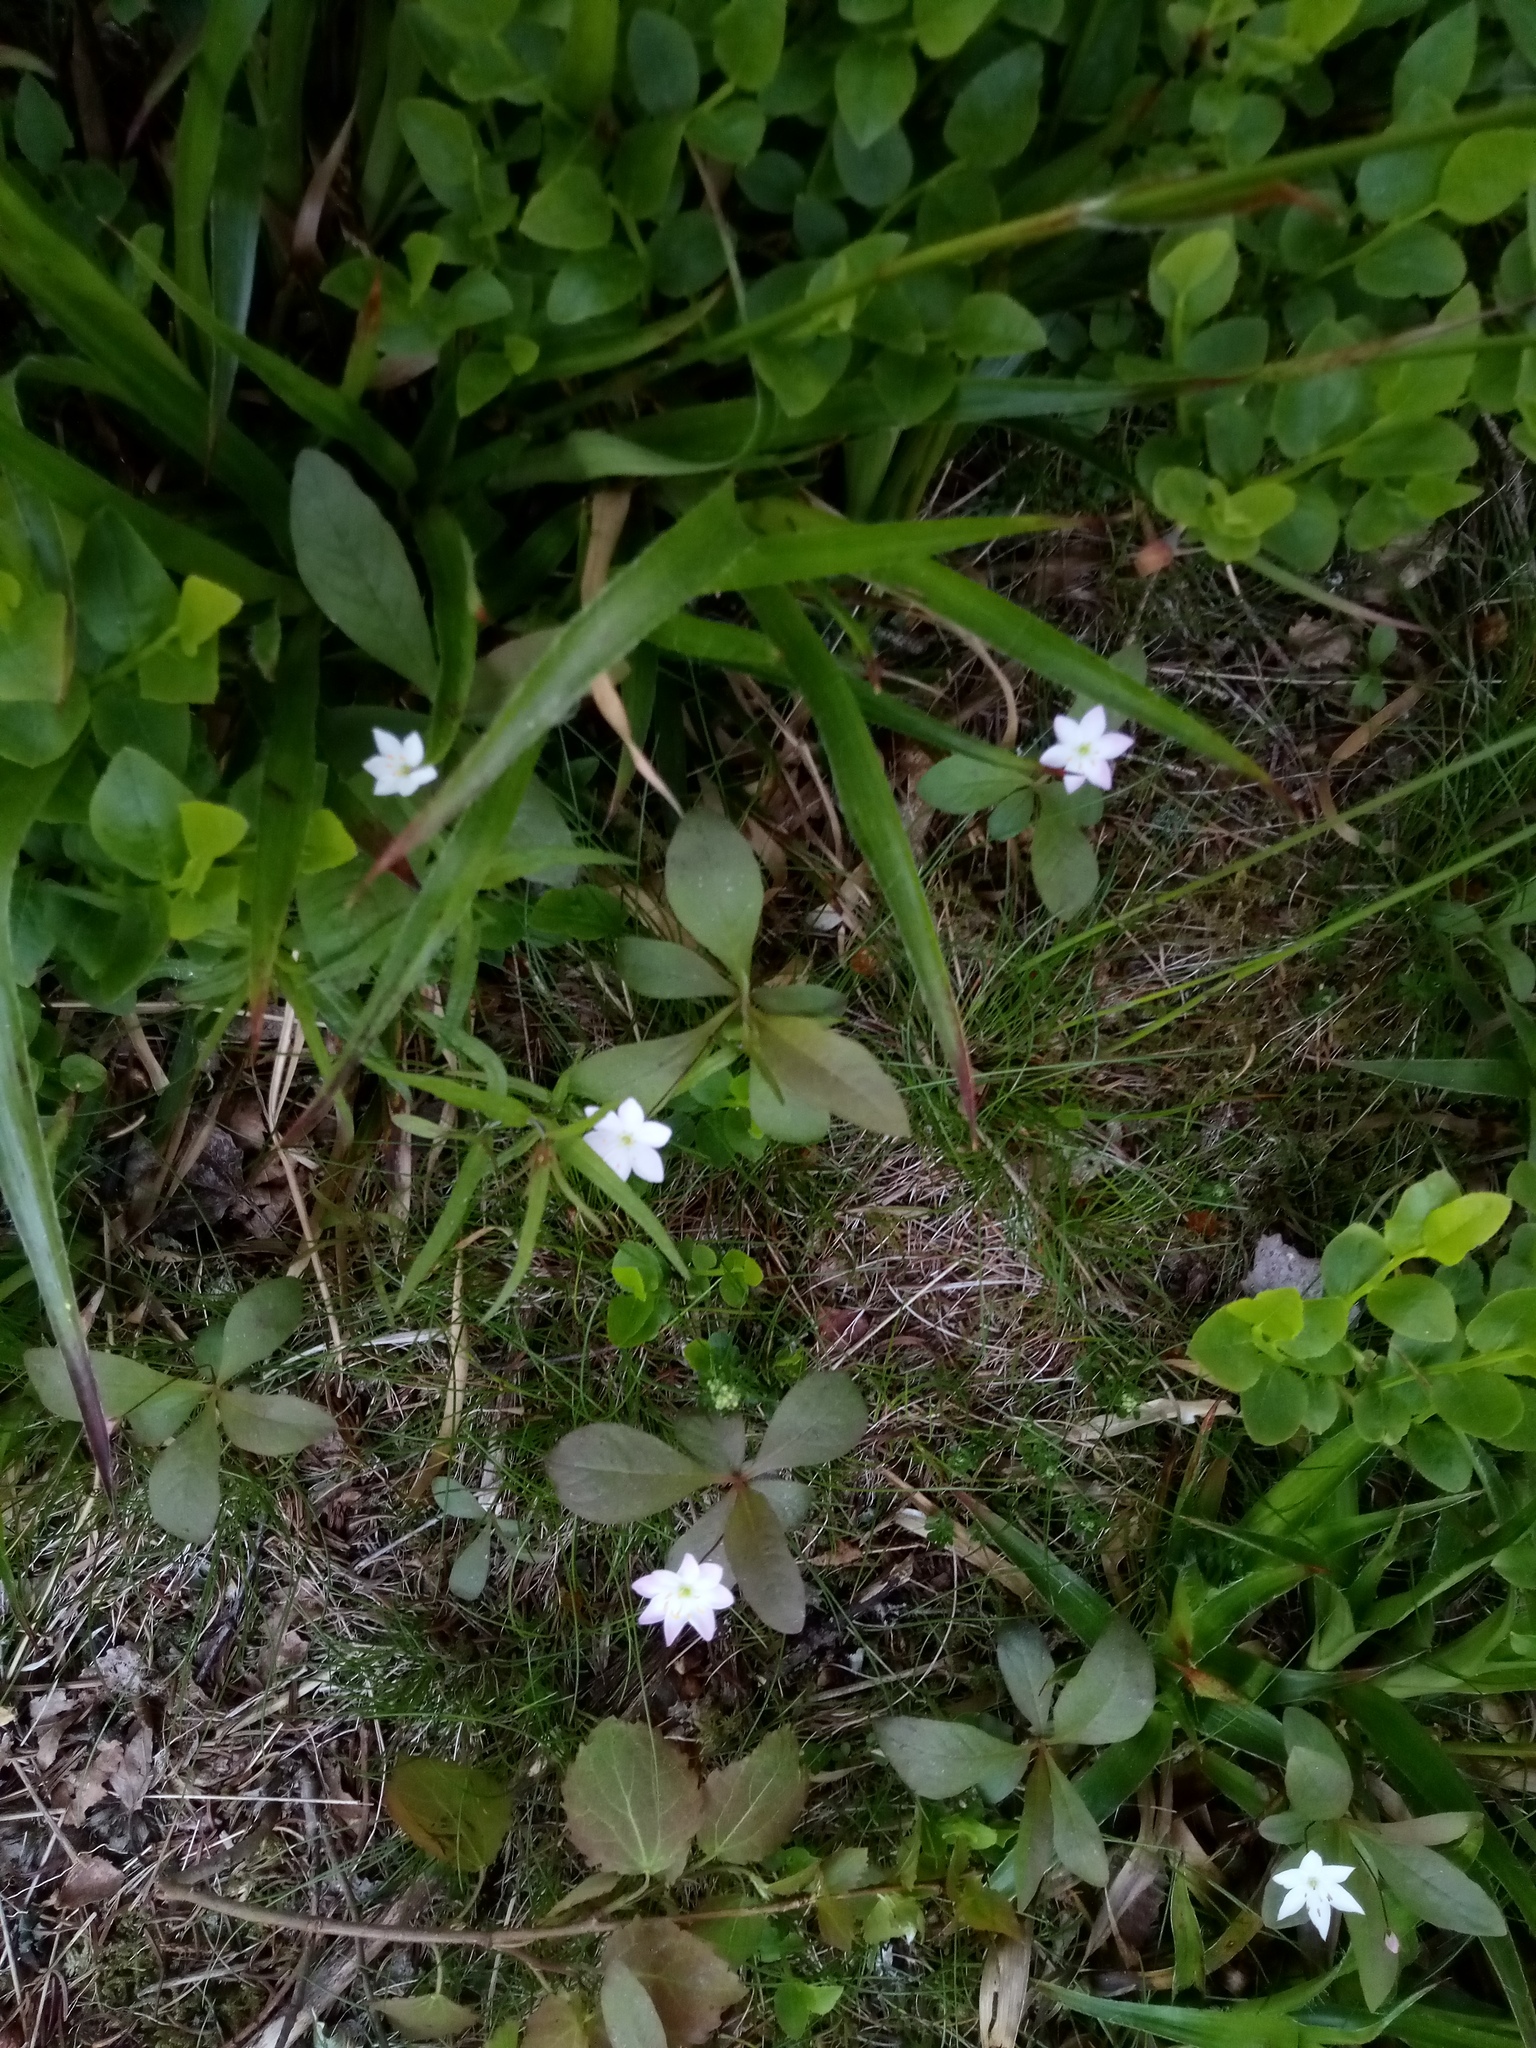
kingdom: Plantae
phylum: Tracheophyta
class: Magnoliopsida
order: Ericales
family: Primulaceae
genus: Lysimachia
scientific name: Lysimachia europaea
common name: Arctic starflower
